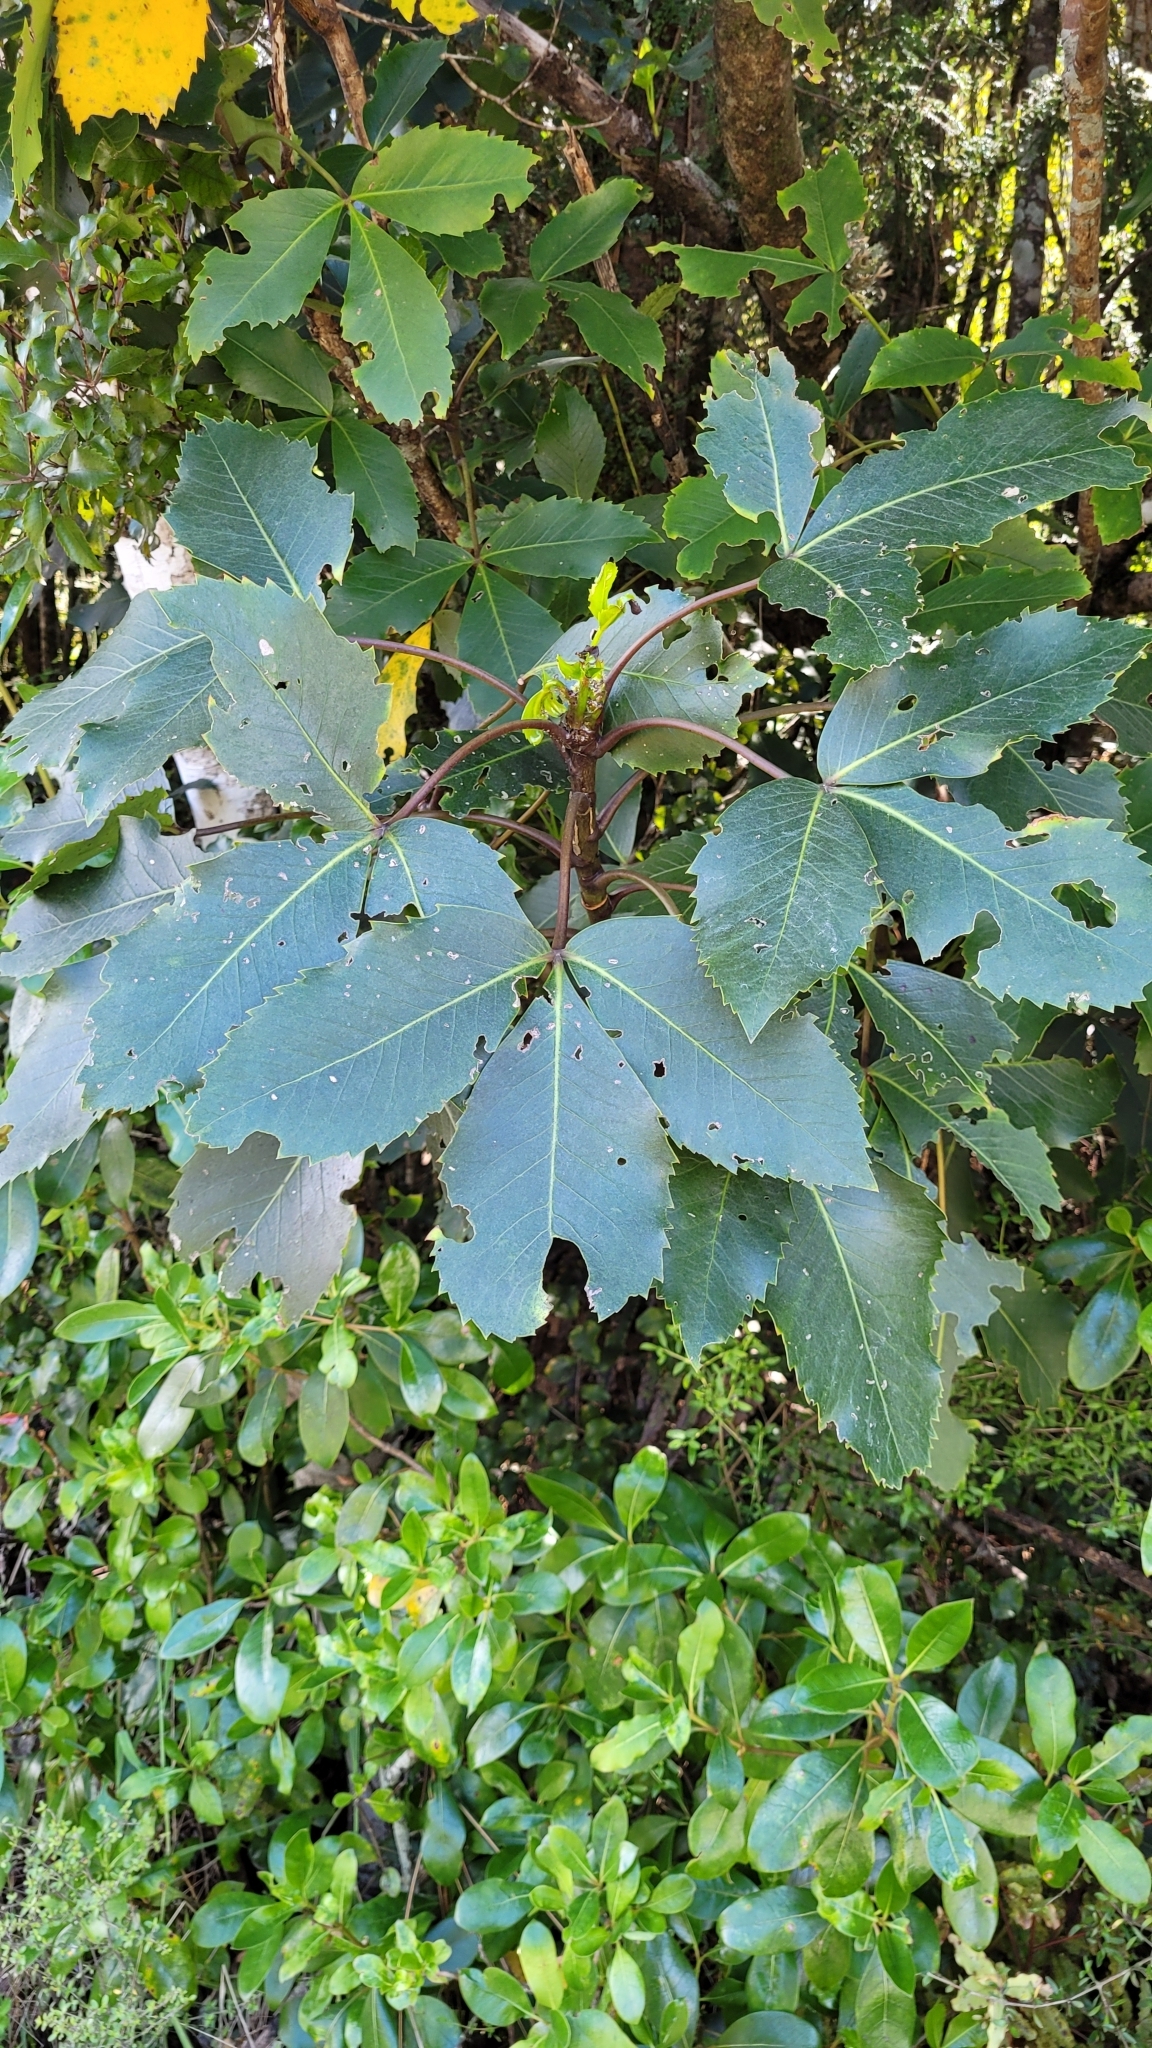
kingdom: Plantae
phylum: Tracheophyta
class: Magnoliopsida
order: Apiales
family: Araliaceae
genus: Neopanax
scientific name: Neopanax colensoi
